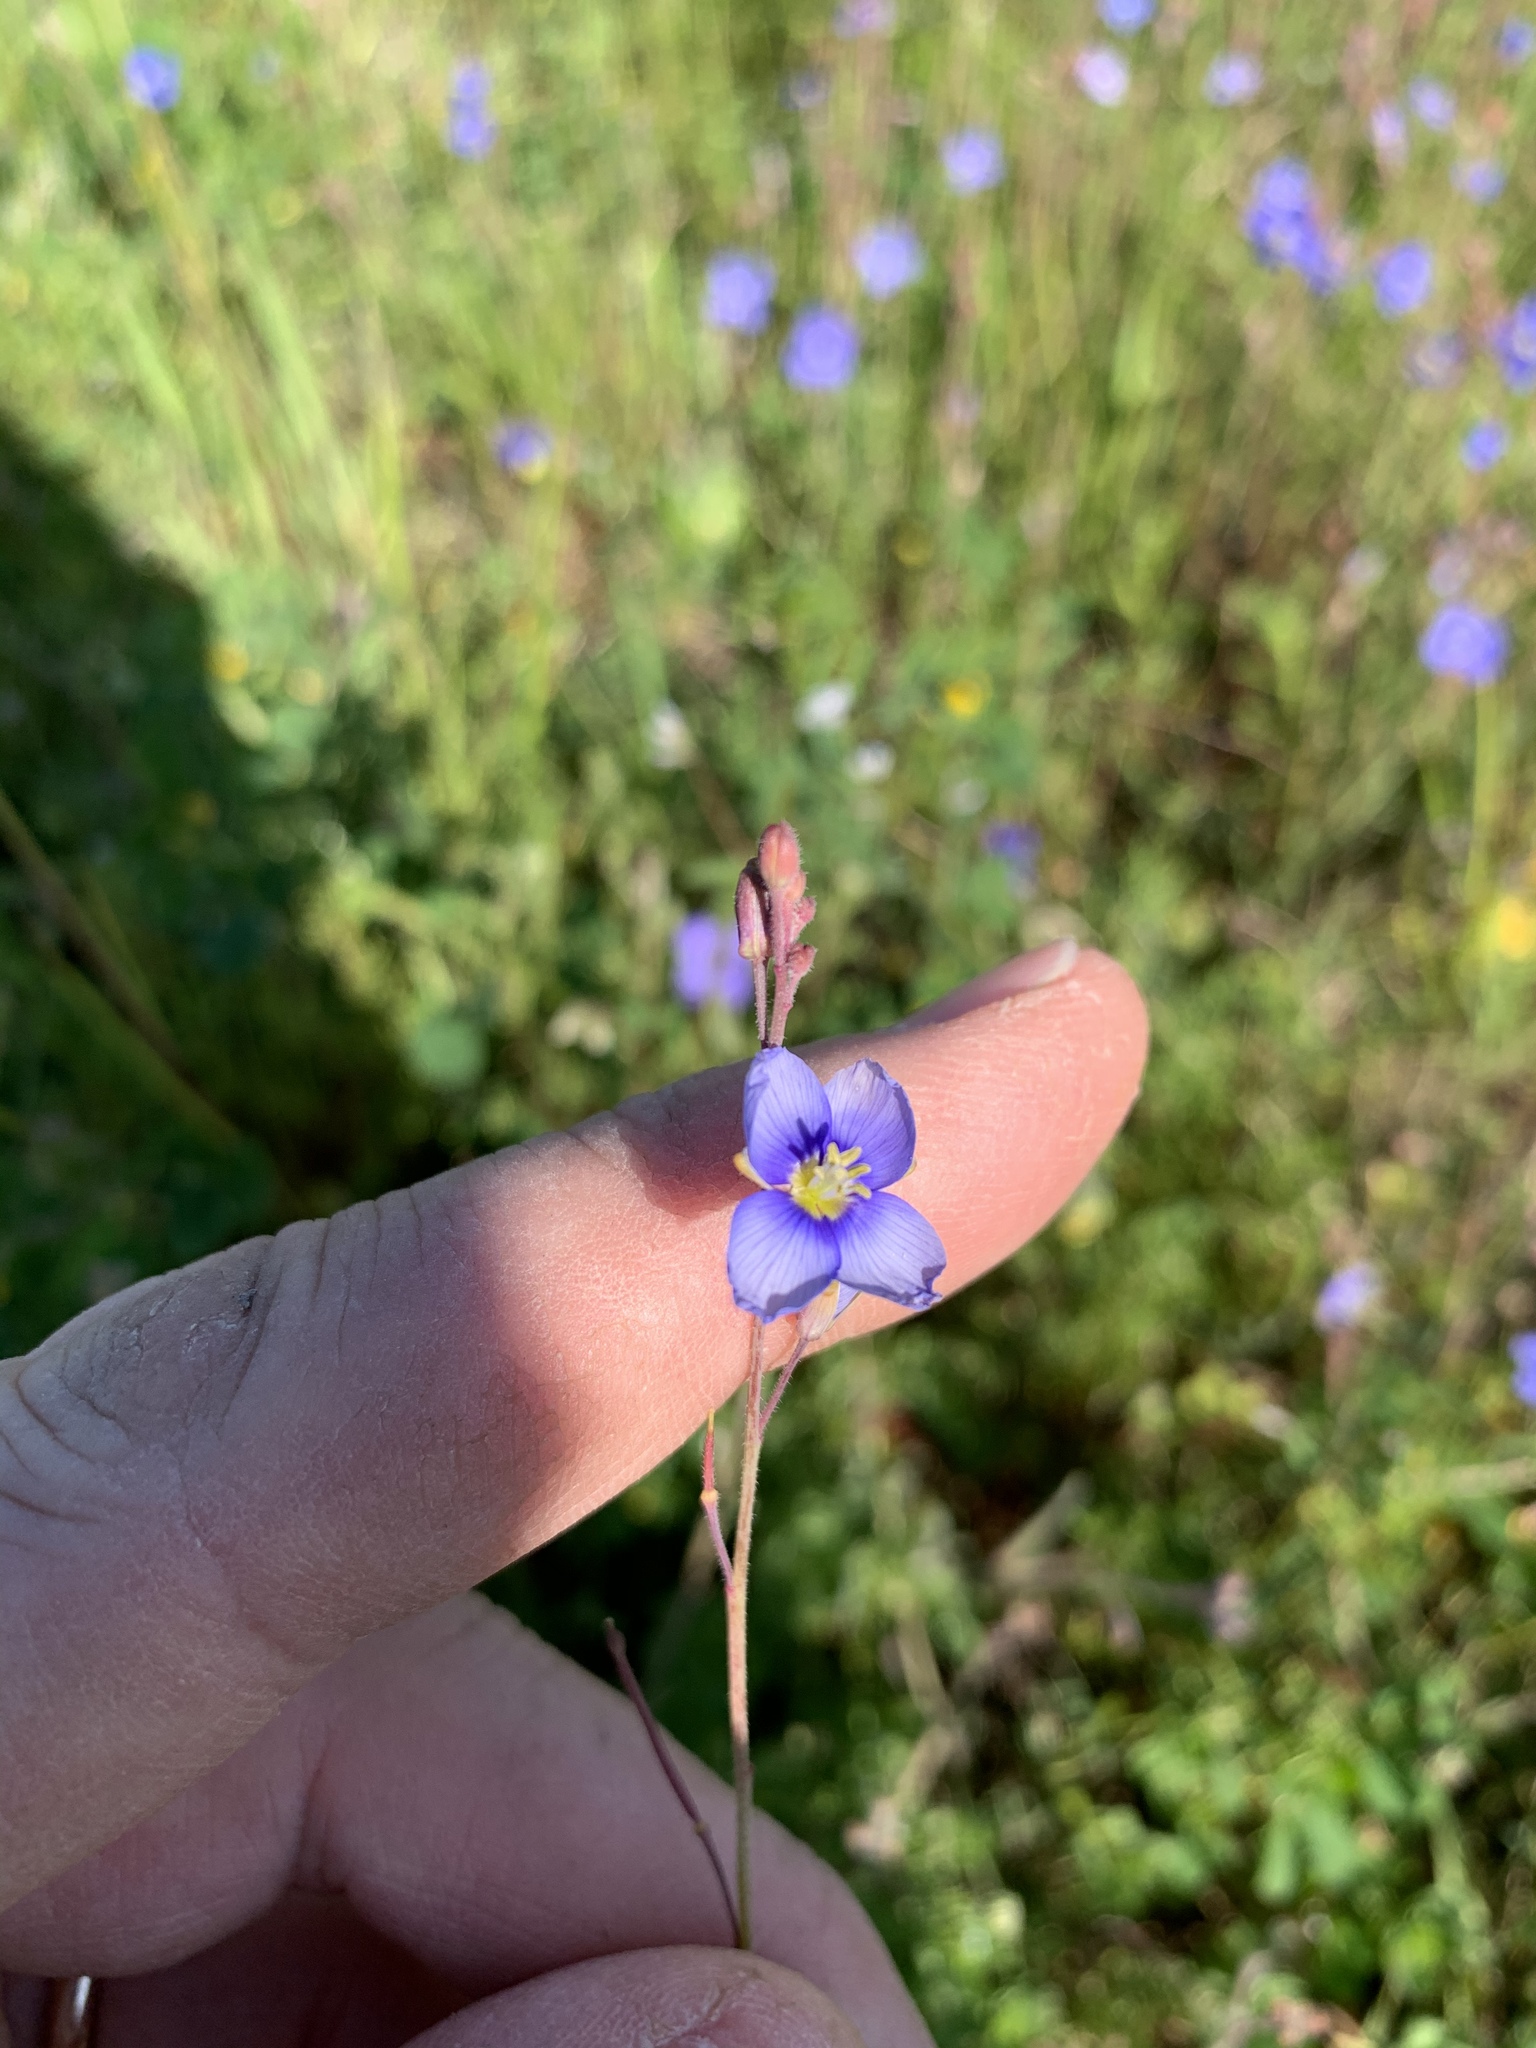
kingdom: Plantae
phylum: Tracheophyta
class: Magnoliopsida
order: Brassicales
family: Brassicaceae
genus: Heliophila
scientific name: Heliophila africana
